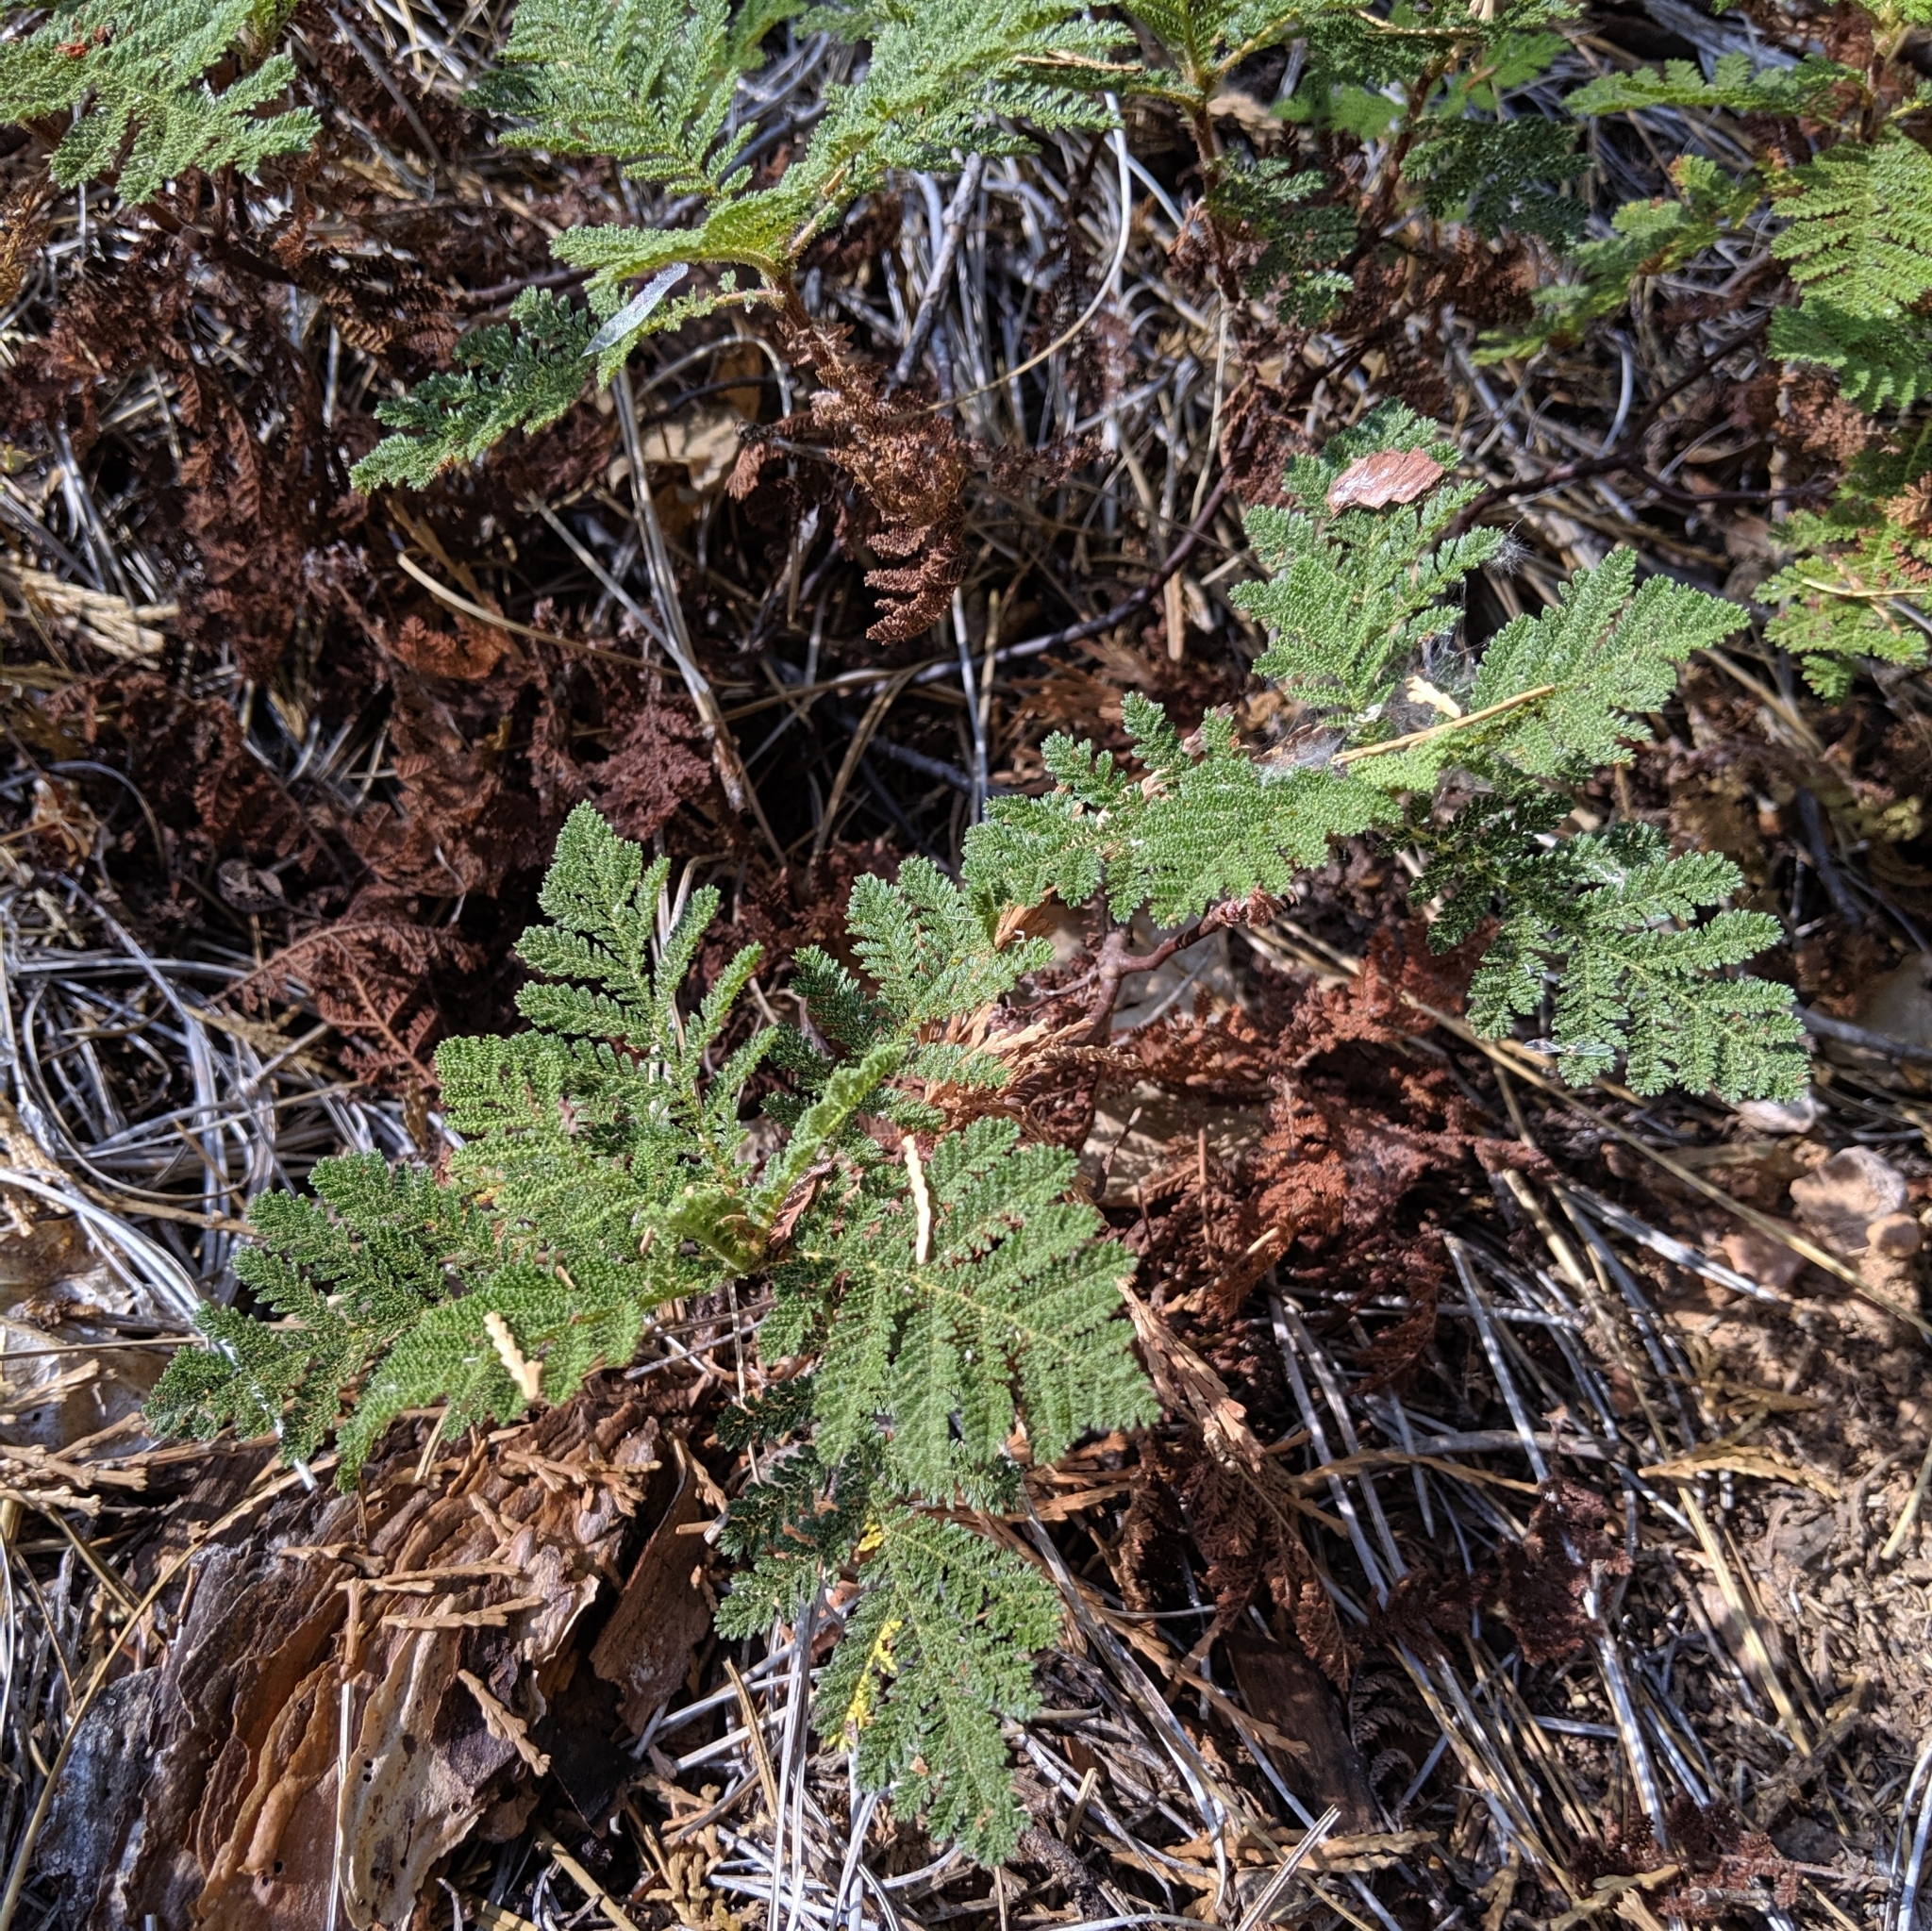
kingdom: Plantae
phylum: Tracheophyta
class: Magnoliopsida
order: Rosales
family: Rosaceae
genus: Chamaebatia
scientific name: Chamaebatia foliolosa
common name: Mountain misery
